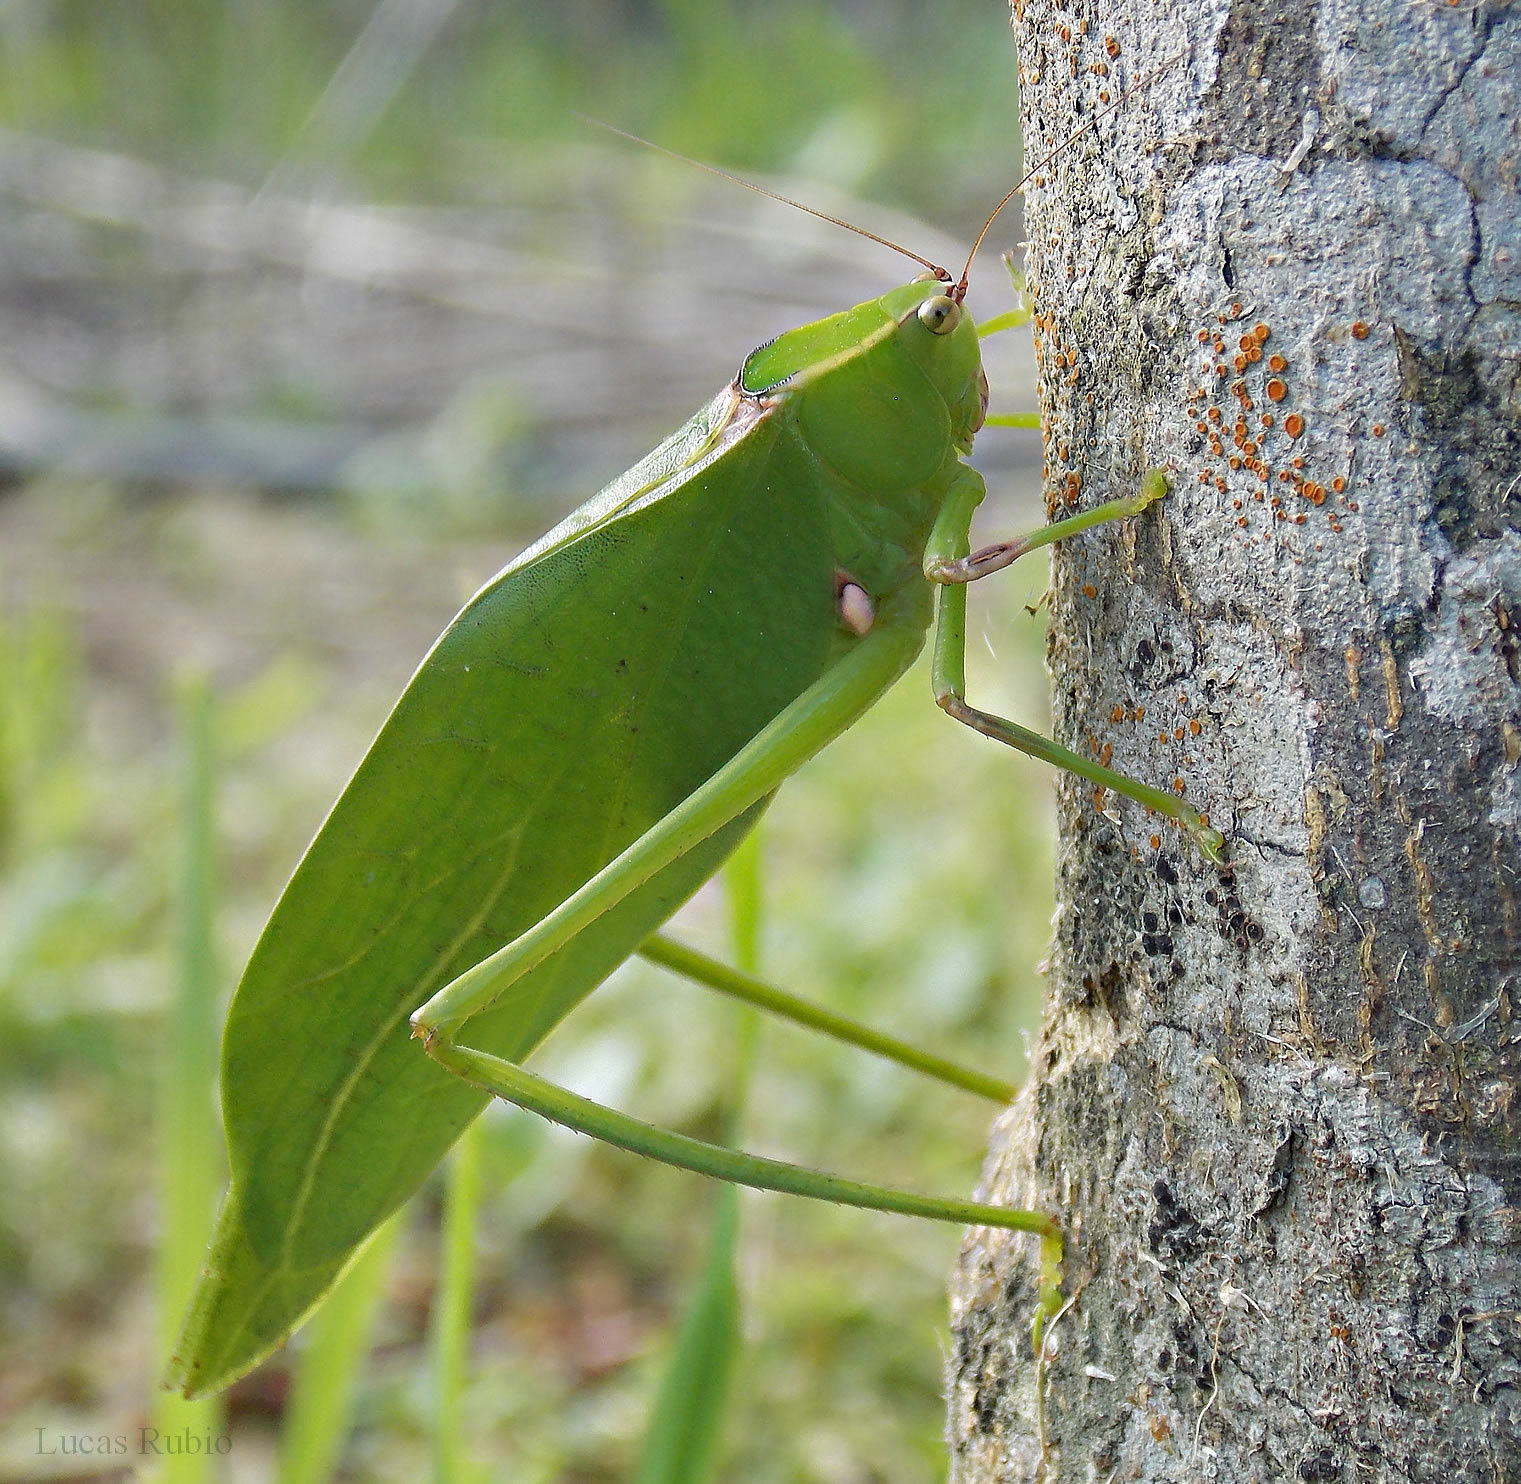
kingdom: Animalia
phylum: Arthropoda
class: Insecta
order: Orthoptera
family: Tettigoniidae
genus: Stilpnochlora
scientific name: Stilpnochlora nanna
